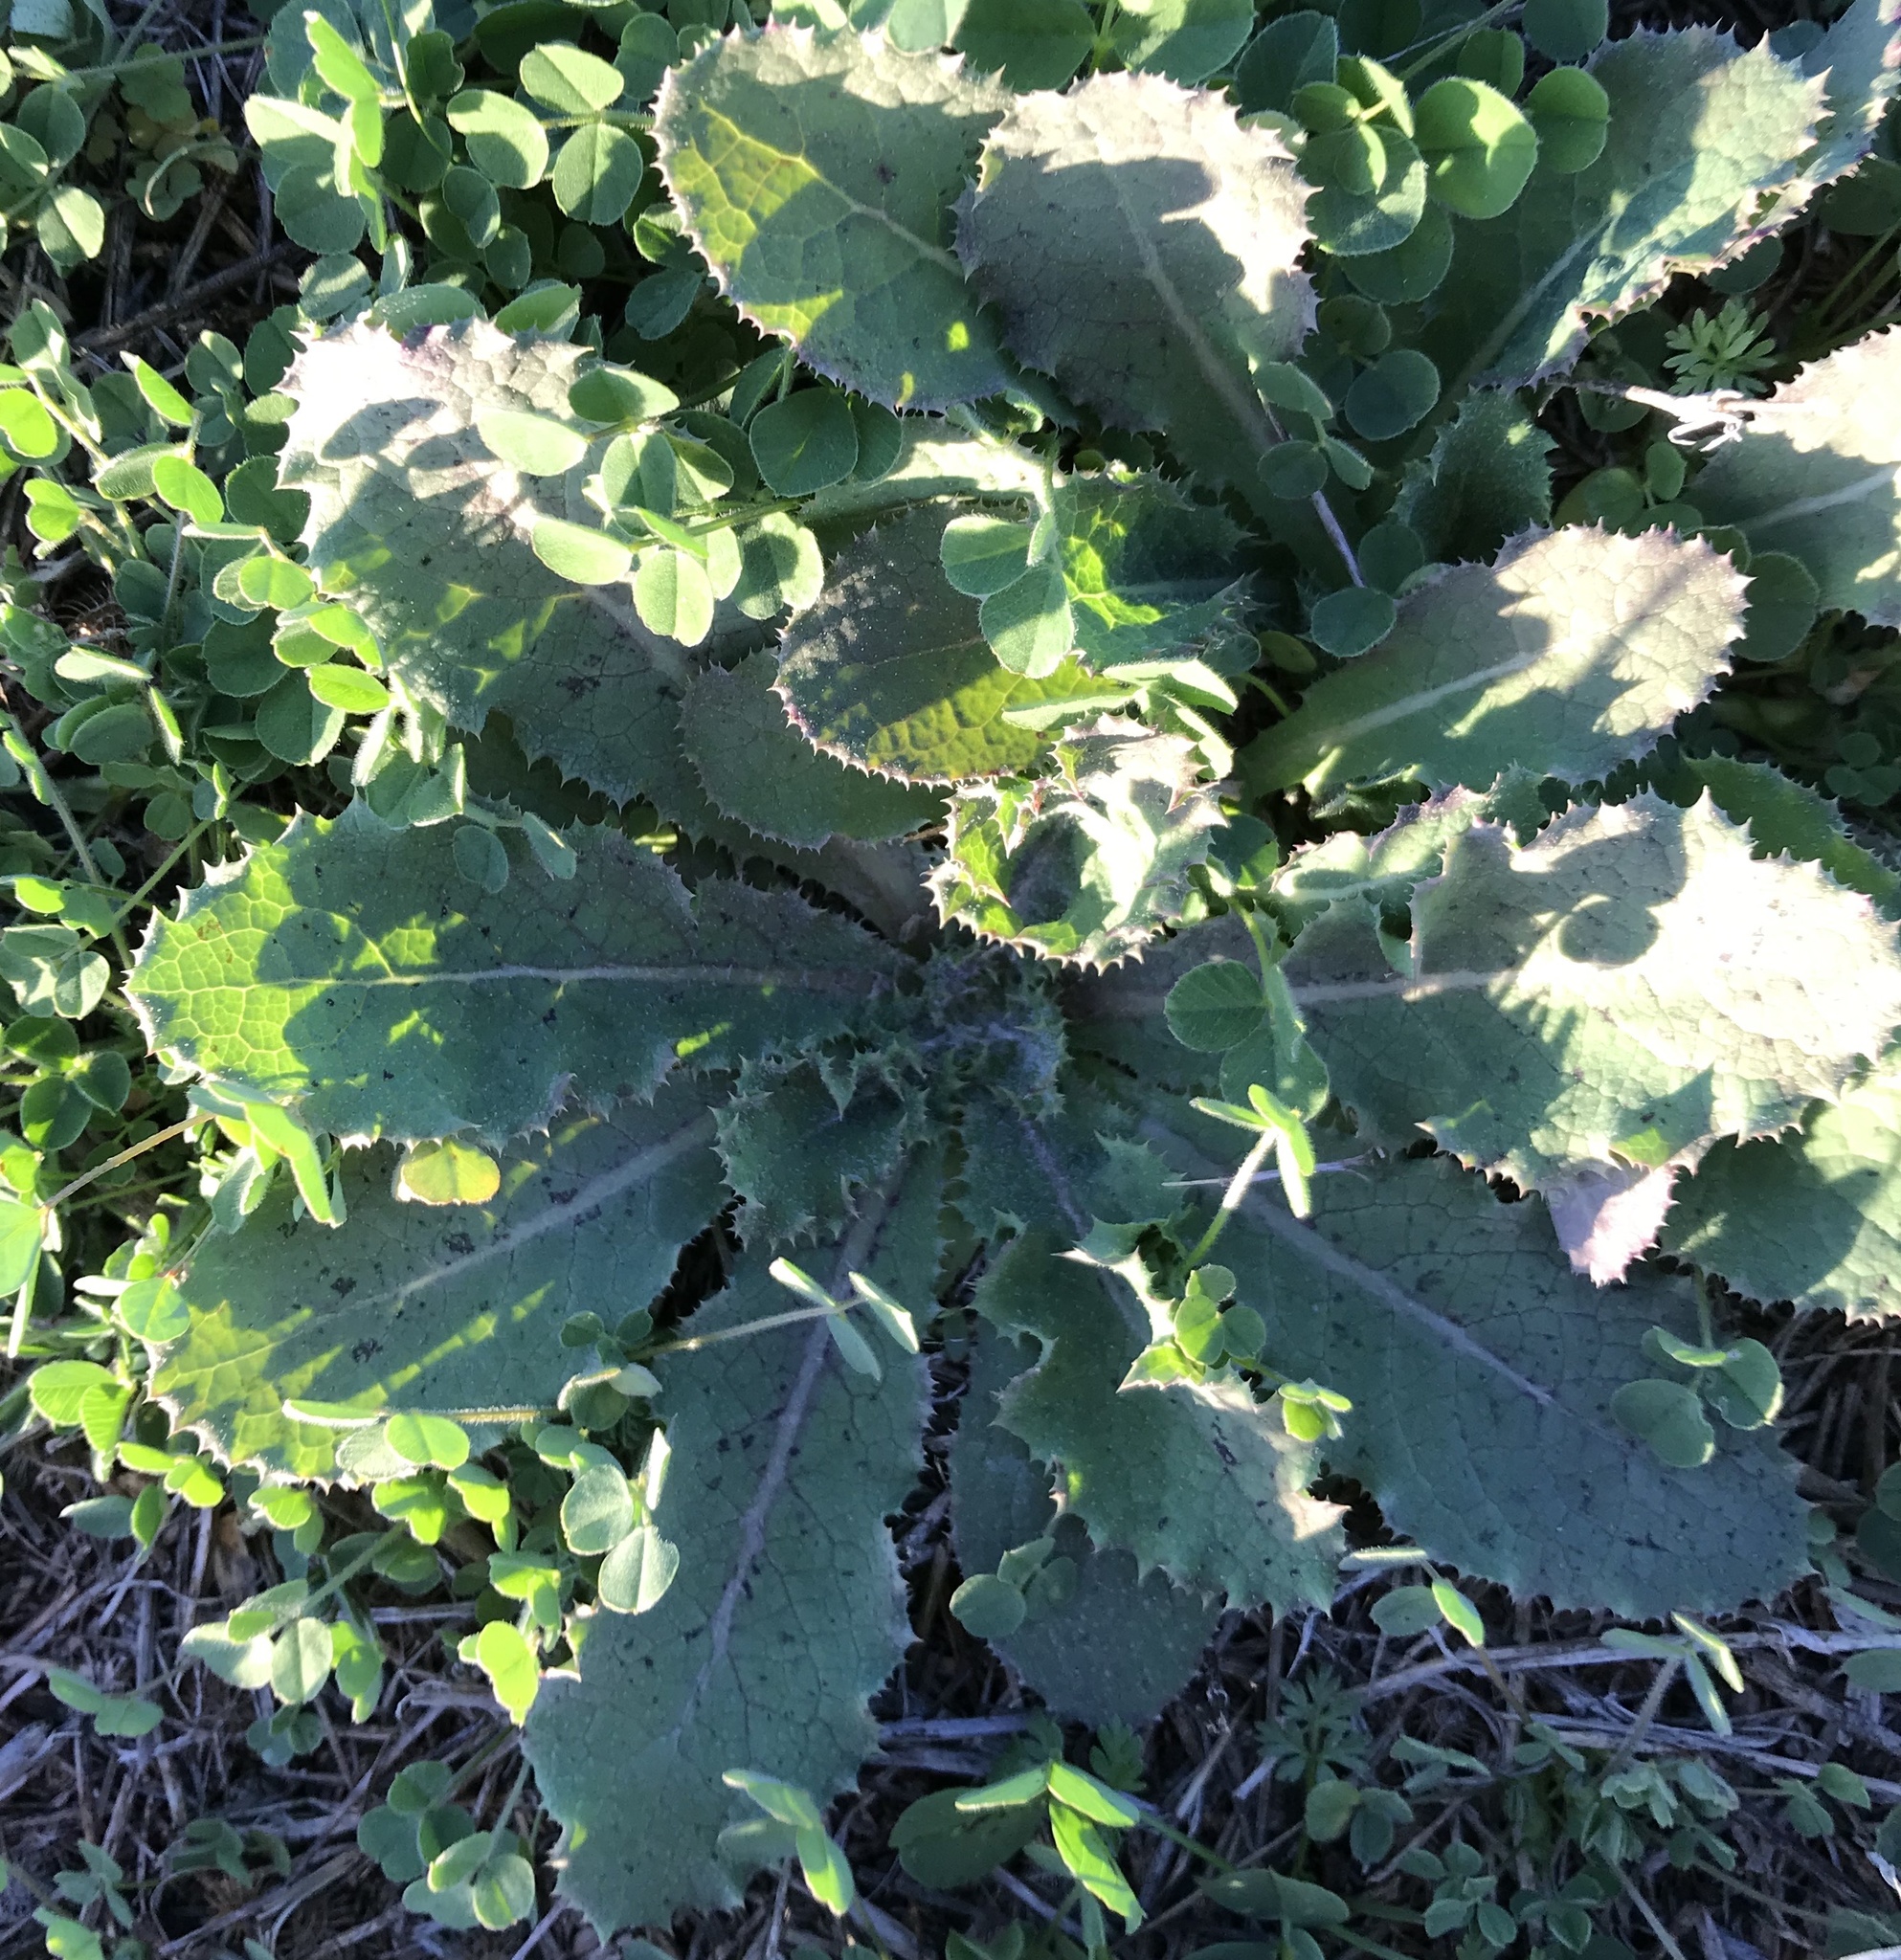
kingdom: Plantae
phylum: Tracheophyta
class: Magnoliopsida
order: Asterales
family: Asteraceae
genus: Sonchus
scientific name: Sonchus asper
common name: Prickly sow-thistle
